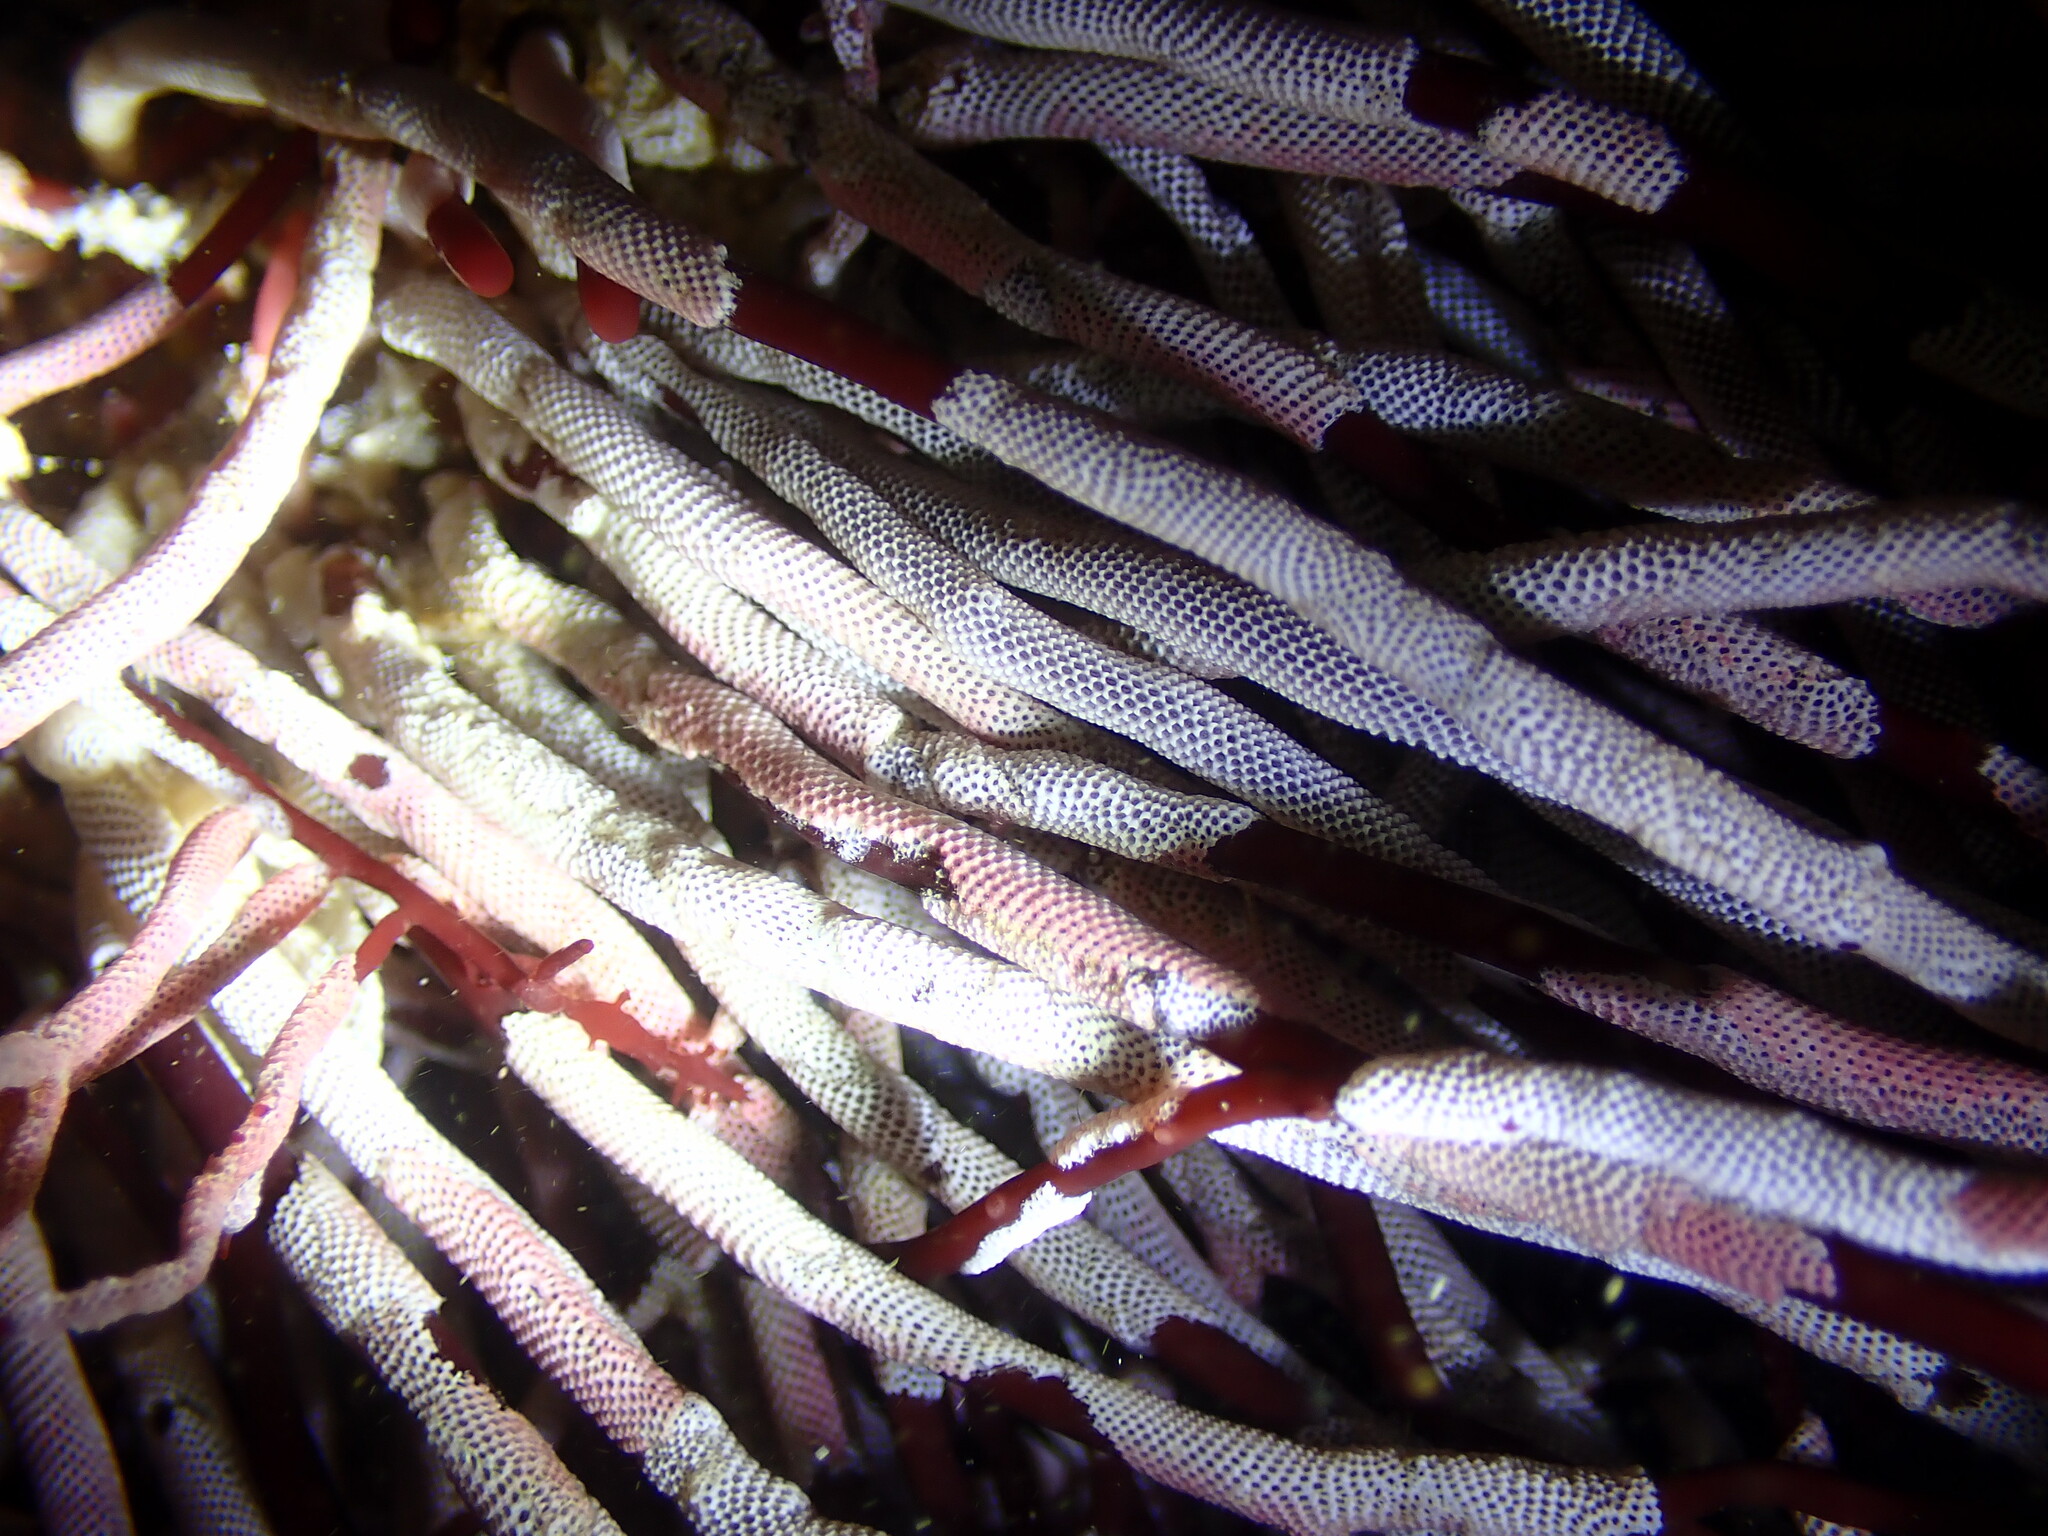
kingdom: Animalia
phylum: Bryozoa
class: Gymnolaemata
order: Cheilostomatida
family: Membraniporidae
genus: Jellyella
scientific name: Jellyella tuberculata
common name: Sargassum bryozoan
